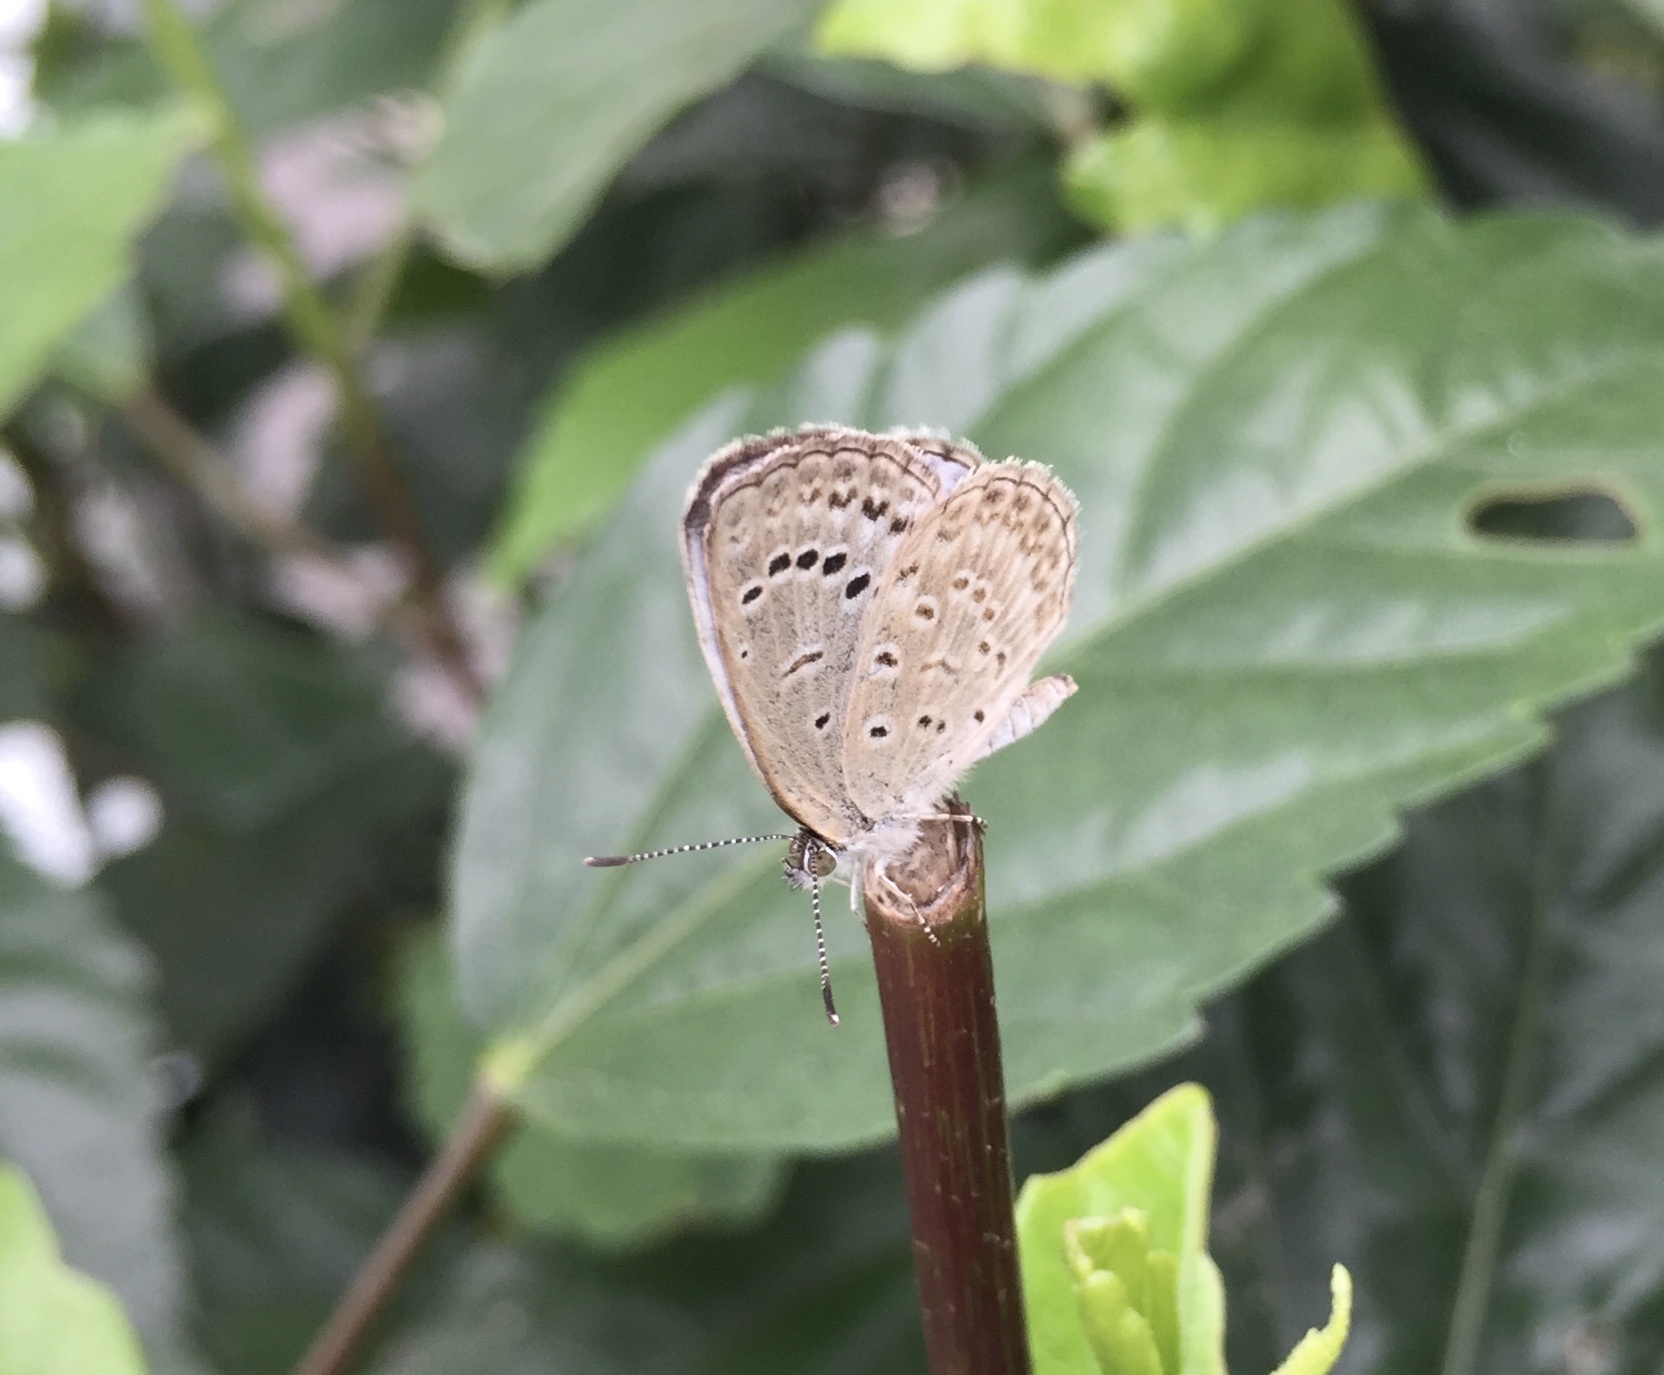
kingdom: Animalia
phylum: Arthropoda
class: Insecta
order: Lepidoptera
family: Lycaenidae
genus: Pseudozizeeria
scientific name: Pseudozizeeria maha
